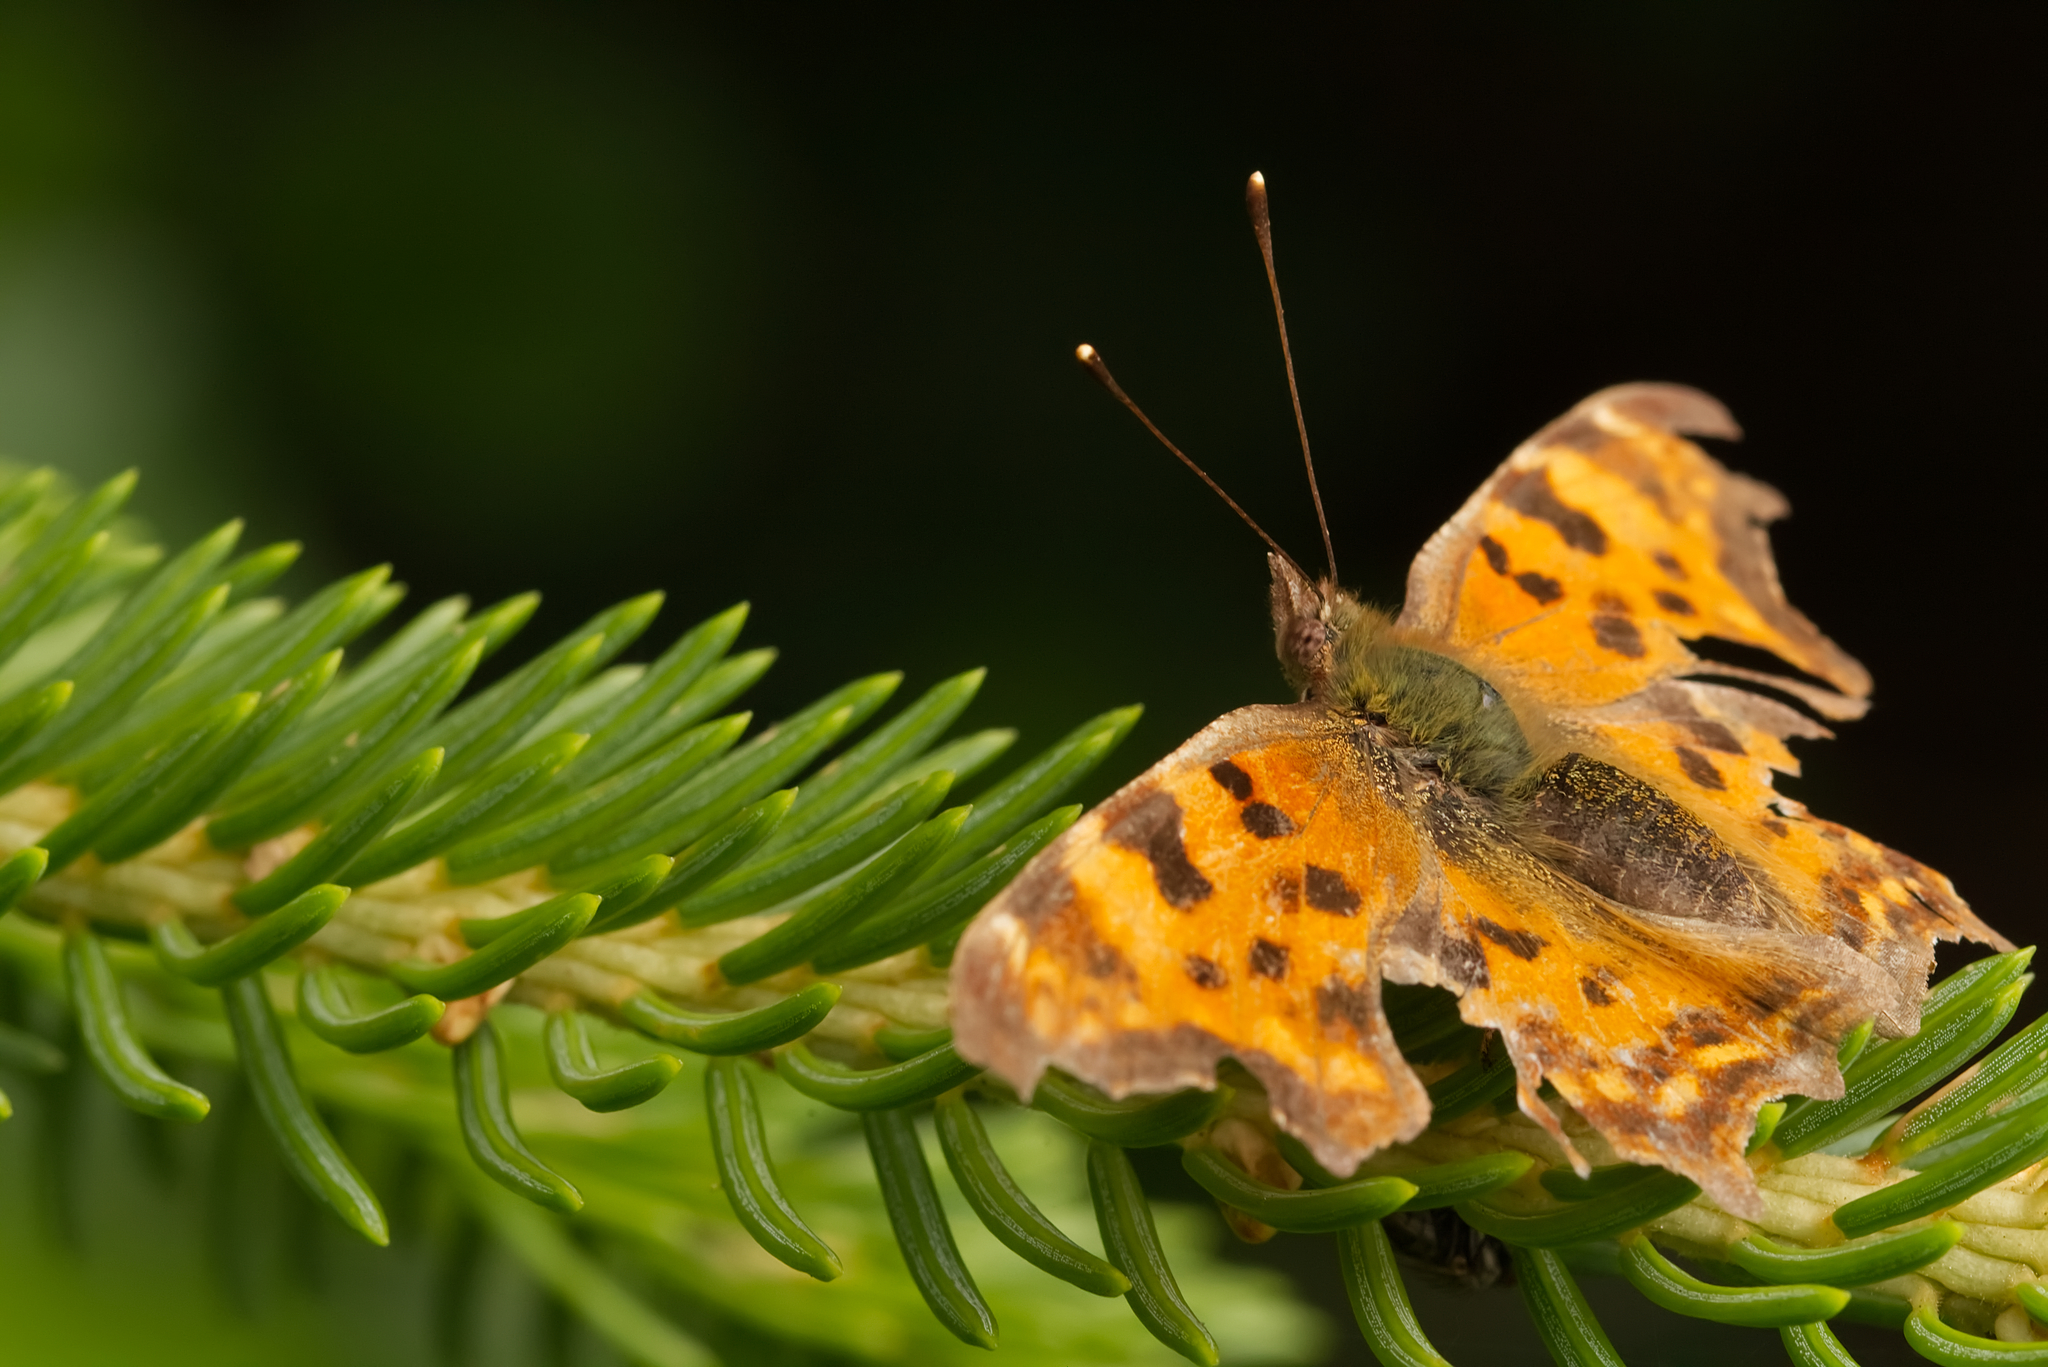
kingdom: Animalia
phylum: Arthropoda
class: Insecta
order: Lepidoptera
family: Nymphalidae
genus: Polygonia
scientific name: Polygonia c-album
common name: Comma
